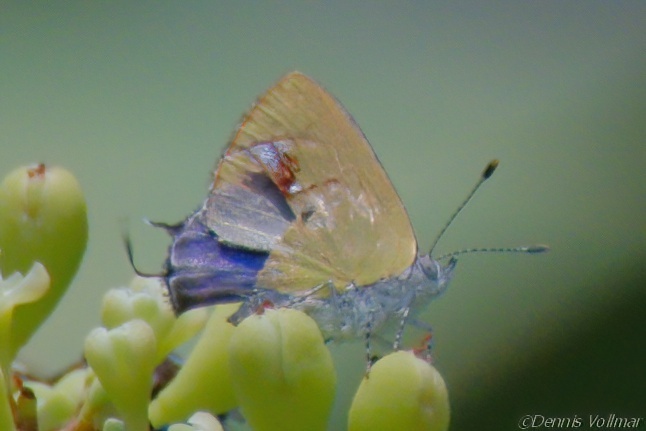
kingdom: Animalia
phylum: Arthropoda
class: Insecta
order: Lepidoptera
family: Lycaenidae
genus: Thecla
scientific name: Thecla maesites
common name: Verde azul hairstreak
